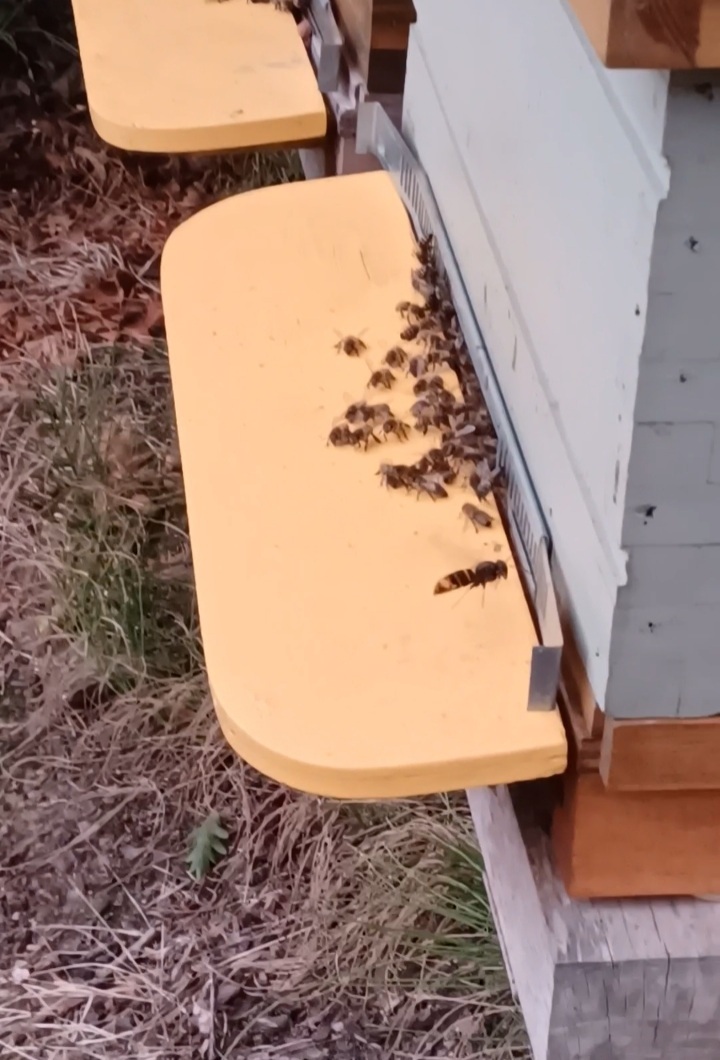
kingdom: Animalia
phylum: Arthropoda
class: Insecta
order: Hymenoptera
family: Vespidae
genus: Vespa
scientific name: Vespa velutina
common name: Asian hornet
